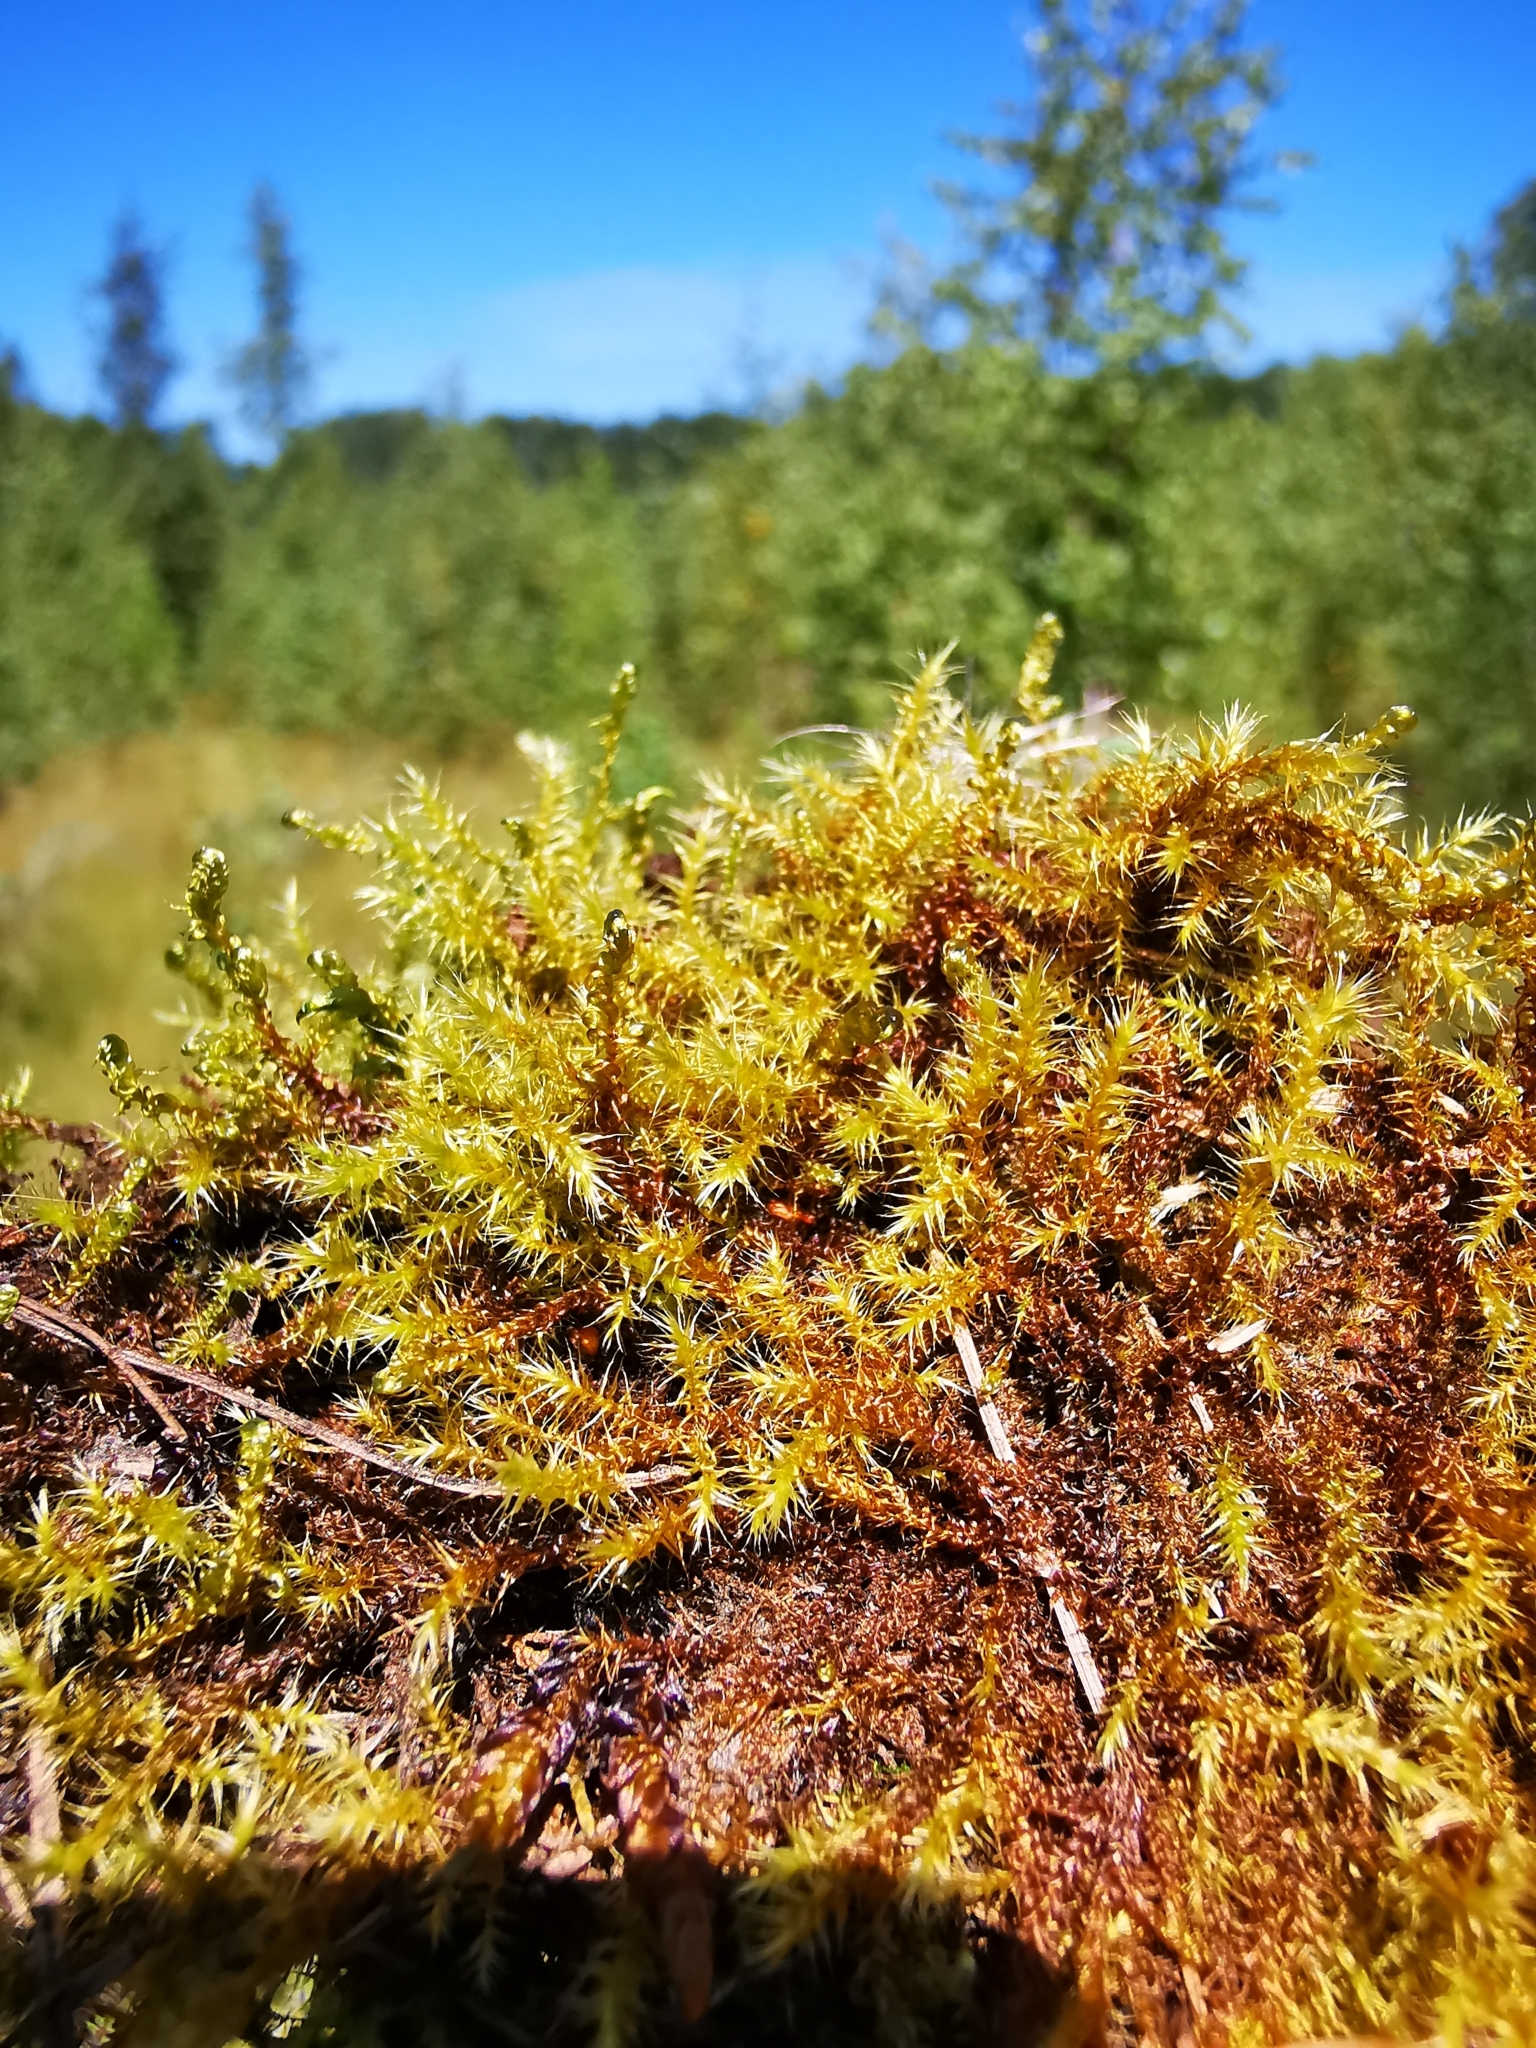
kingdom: Plantae
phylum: Bryophyta
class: Bryopsida
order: Hypnales
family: Amblystegiaceae
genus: Campylium
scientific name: Campylium stellatum
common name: Yellow starry fen moss
